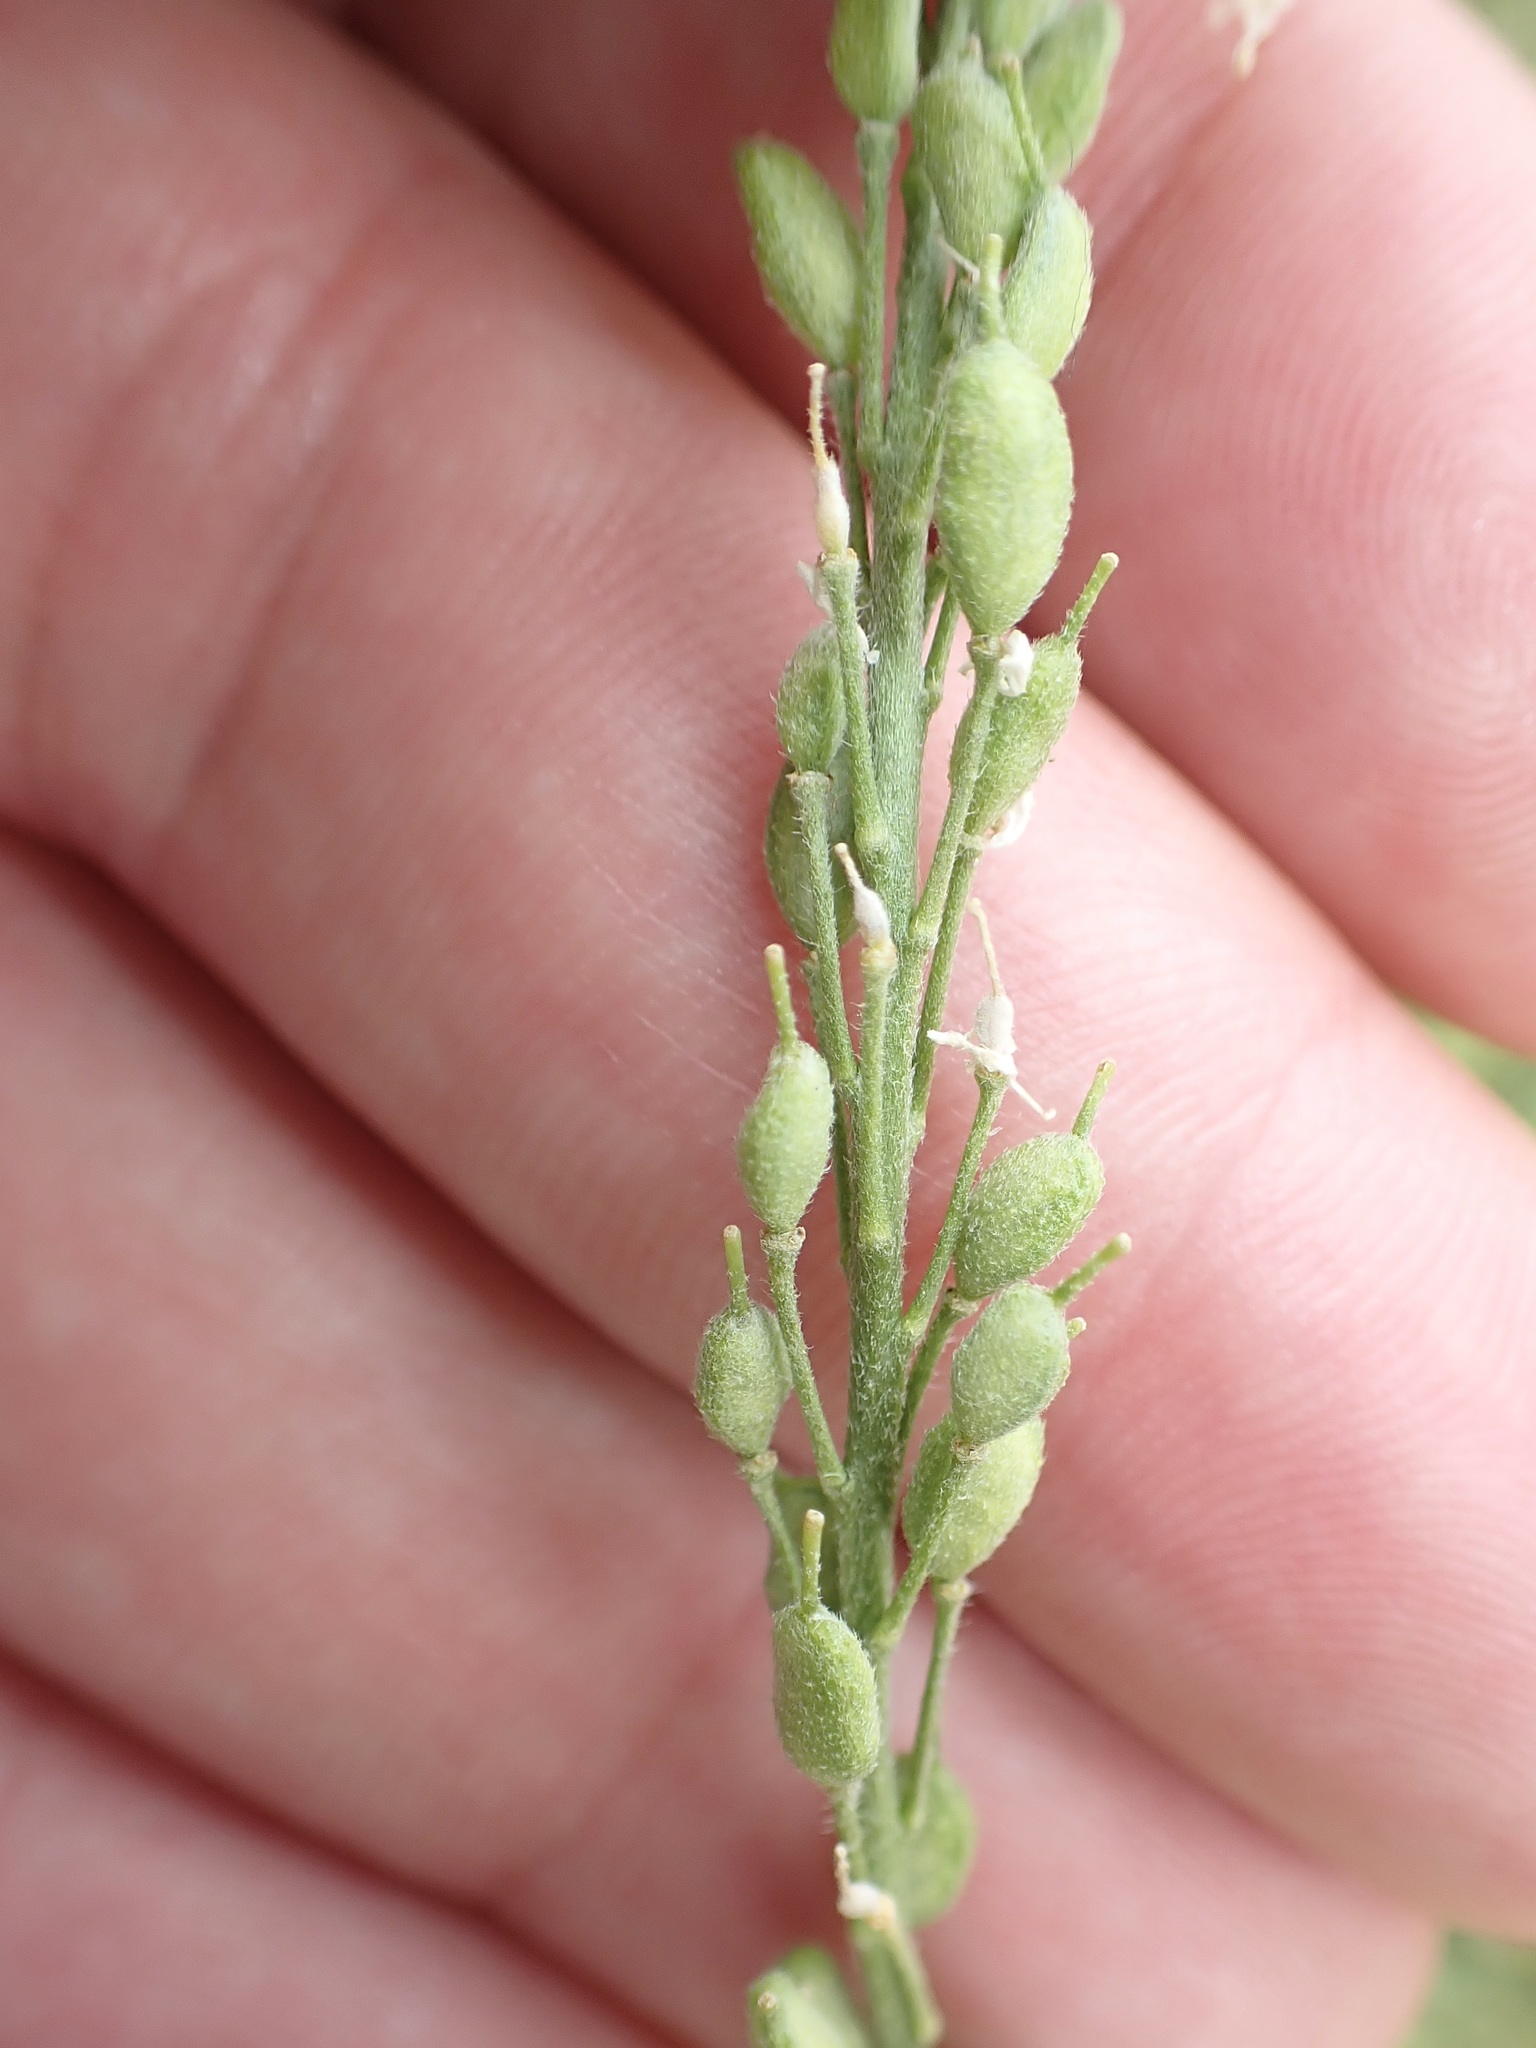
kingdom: Plantae
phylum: Tracheophyta
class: Magnoliopsida
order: Brassicales
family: Brassicaceae
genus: Berteroa
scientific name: Berteroa incana
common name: Hoary alison
